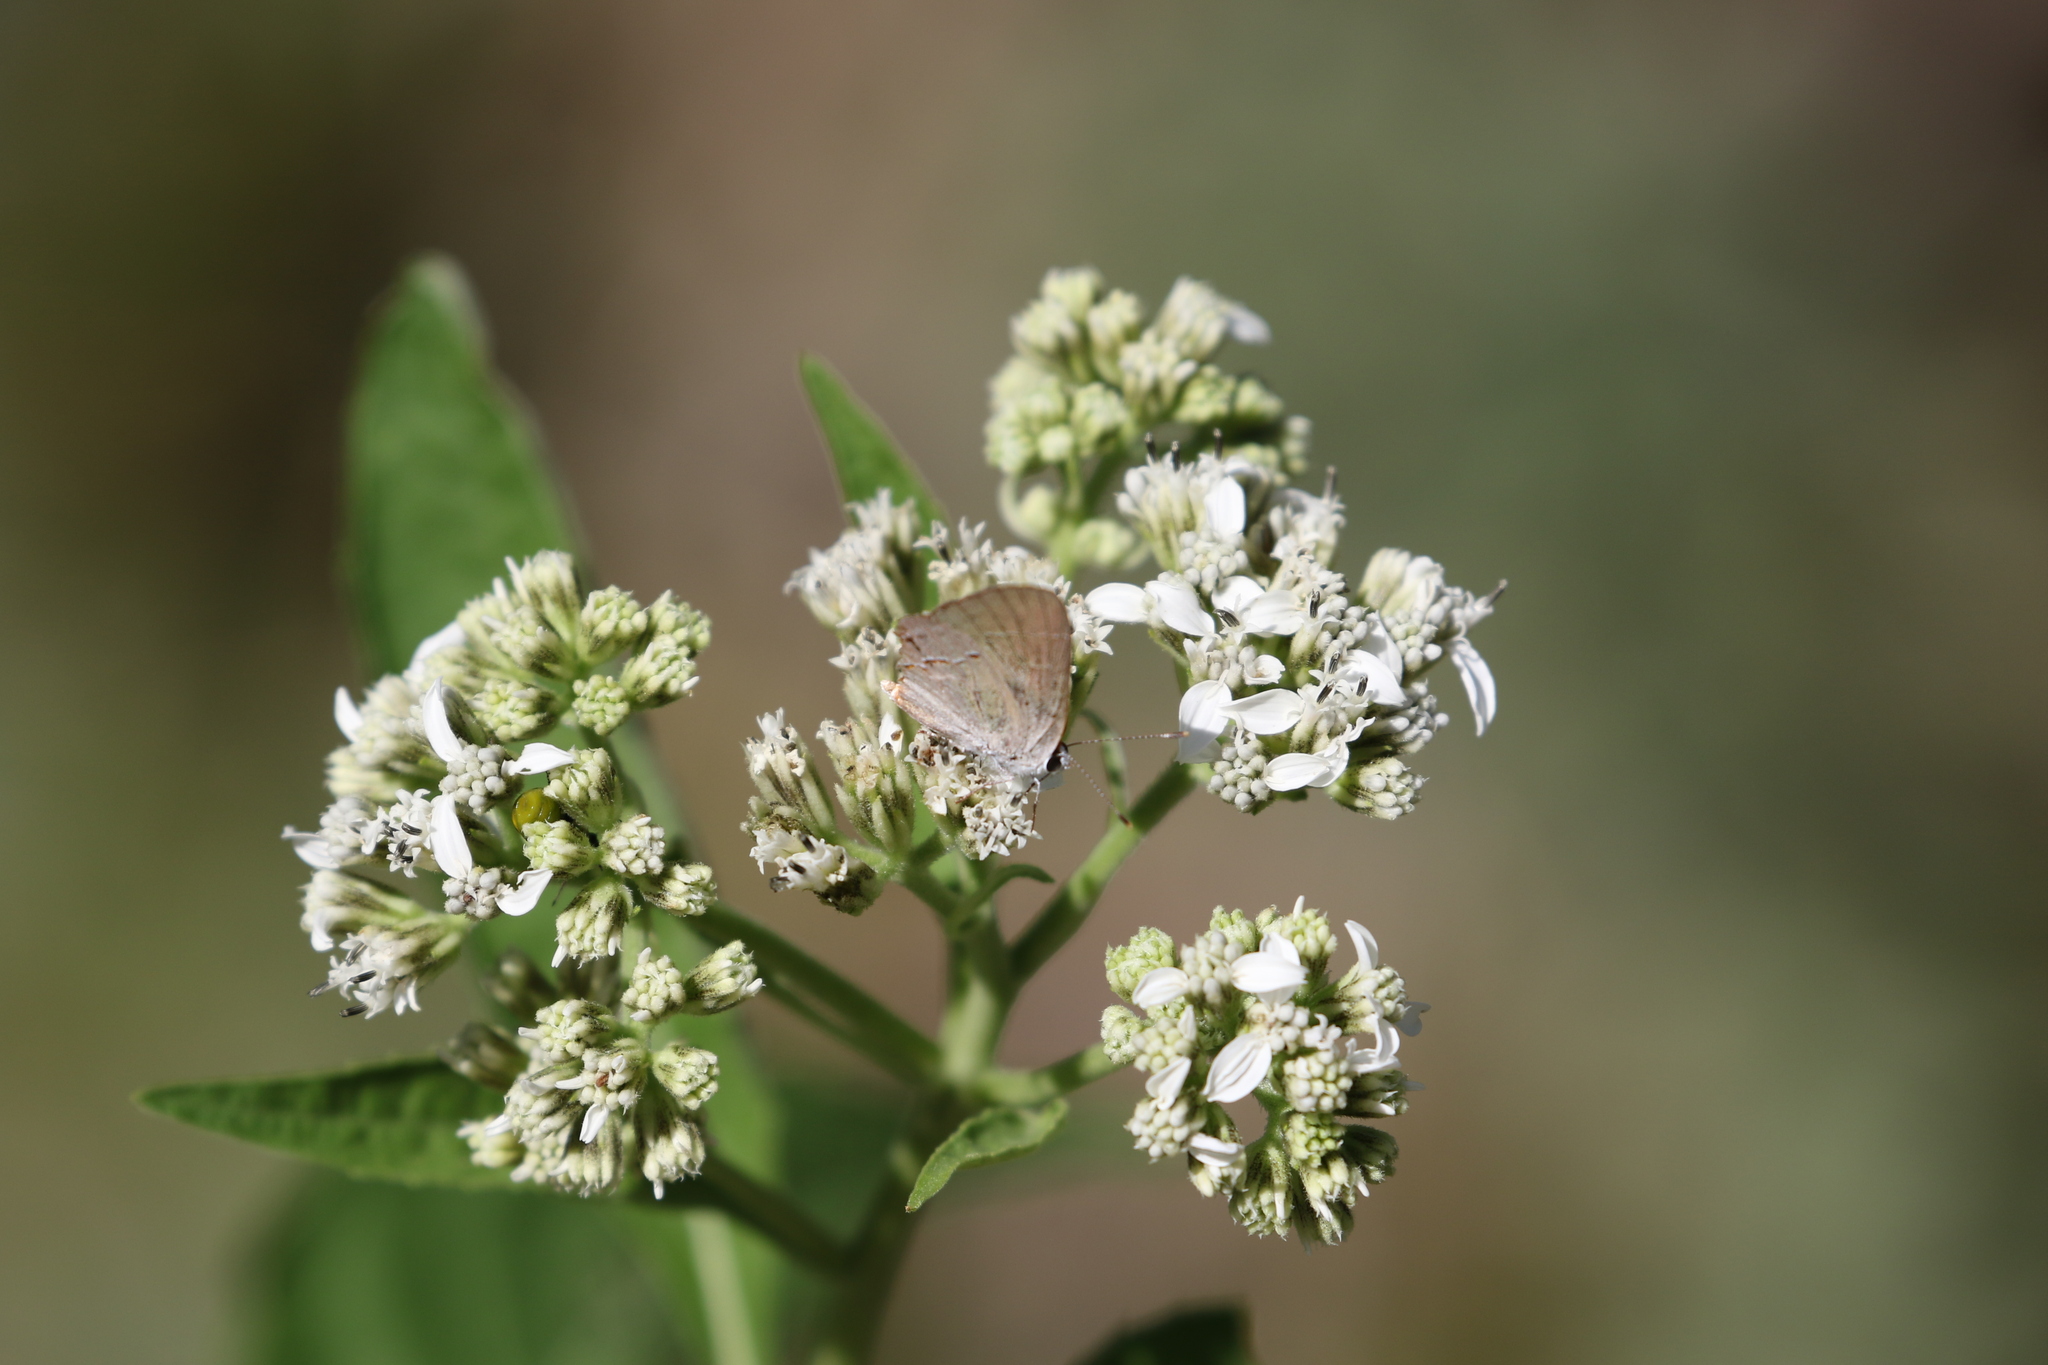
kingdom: Animalia
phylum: Arthropoda
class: Insecta
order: Lepidoptera
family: Lycaenidae
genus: Strymon
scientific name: Strymon melinus
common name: Gray hairstreak
